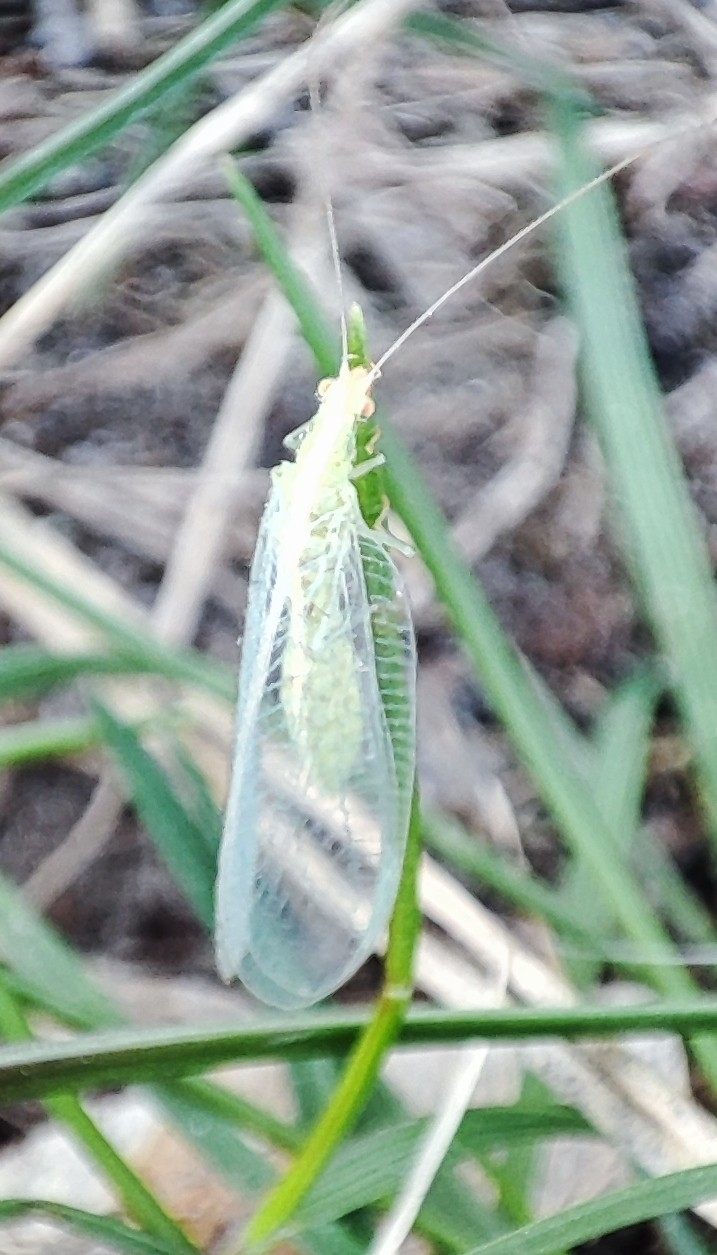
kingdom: Animalia
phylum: Arthropoda
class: Insecta
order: Neuroptera
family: Chrysopidae
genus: Chrysoperla
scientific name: Chrysoperla
